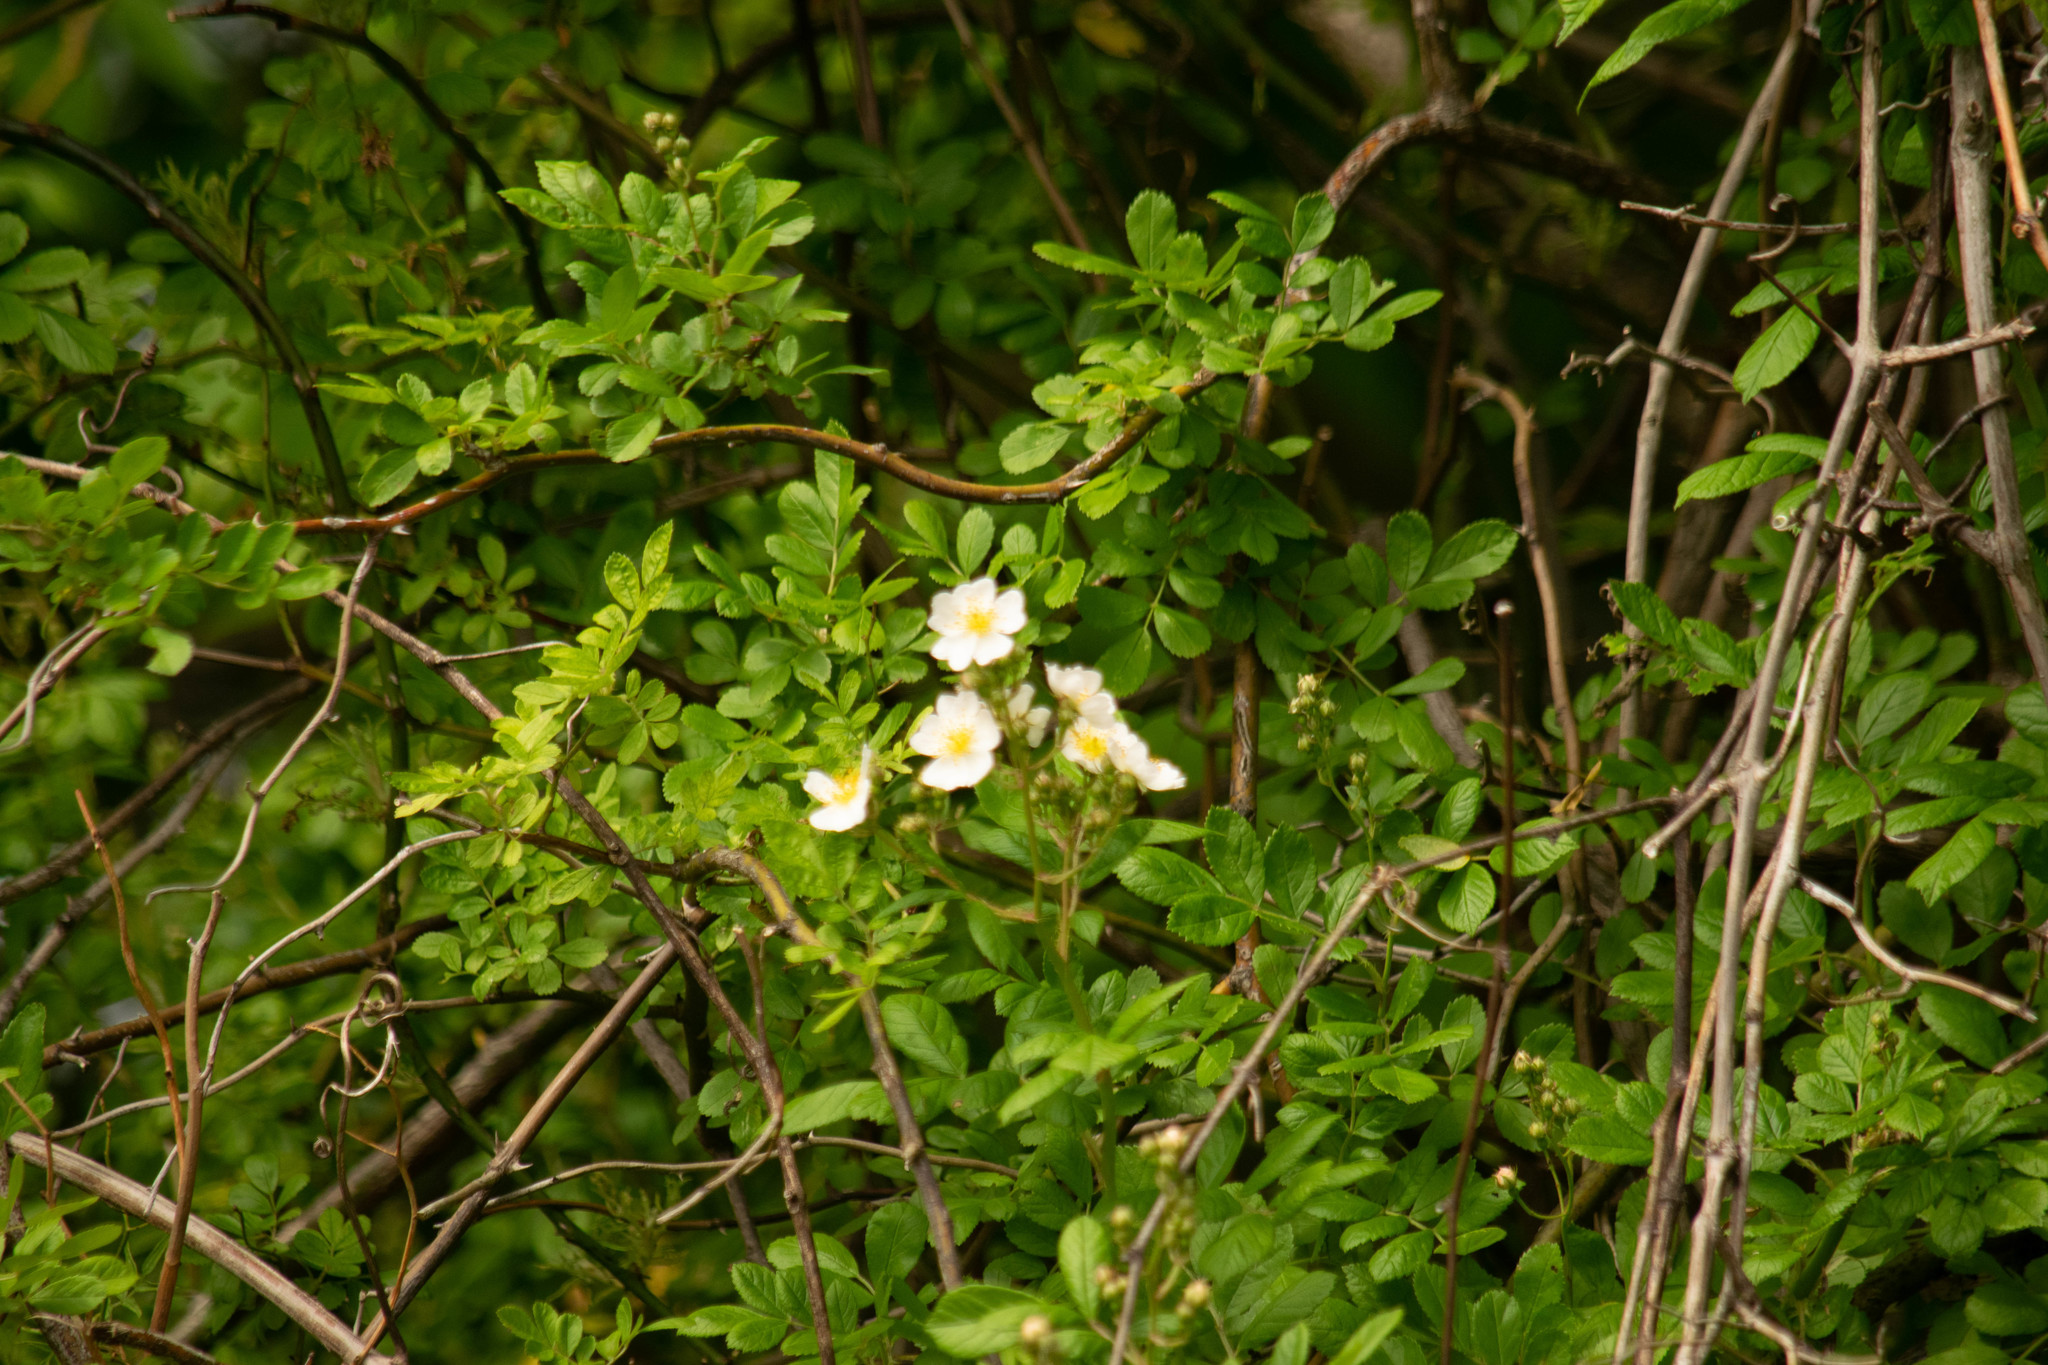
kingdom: Plantae
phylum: Tracheophyta
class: Magnoliopsida
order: Rosales
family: Rosaceae
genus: Rosa
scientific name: Rosa multiflora
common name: Multiflora rose
